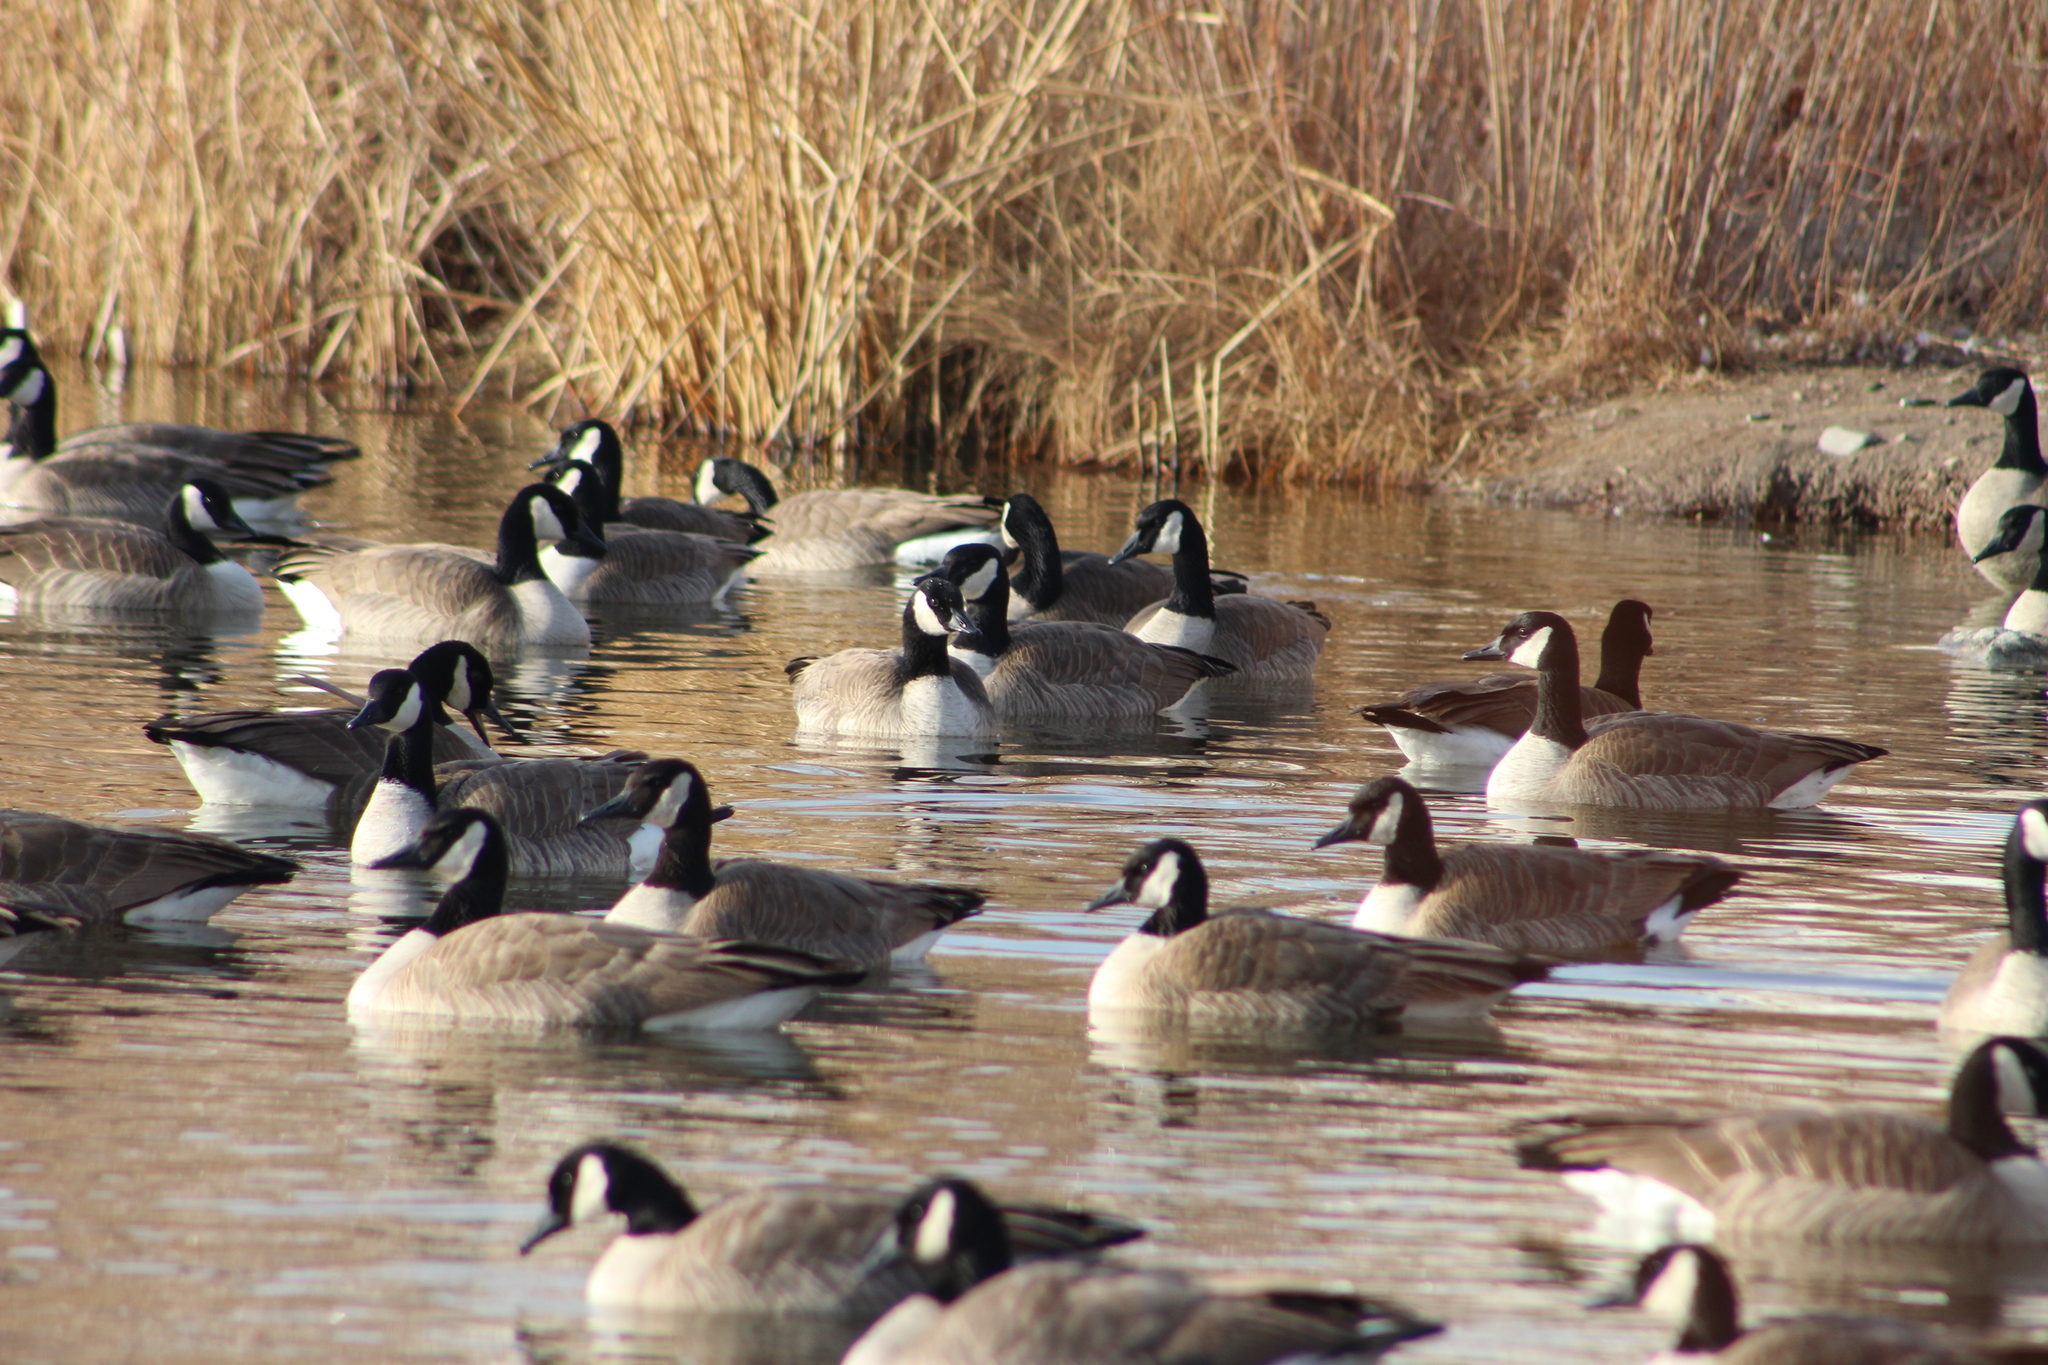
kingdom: Animalia
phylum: Chordata
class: Aves
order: Anseriformes
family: Anatidae
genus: Branta
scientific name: Branta canadensis
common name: Canada goose
